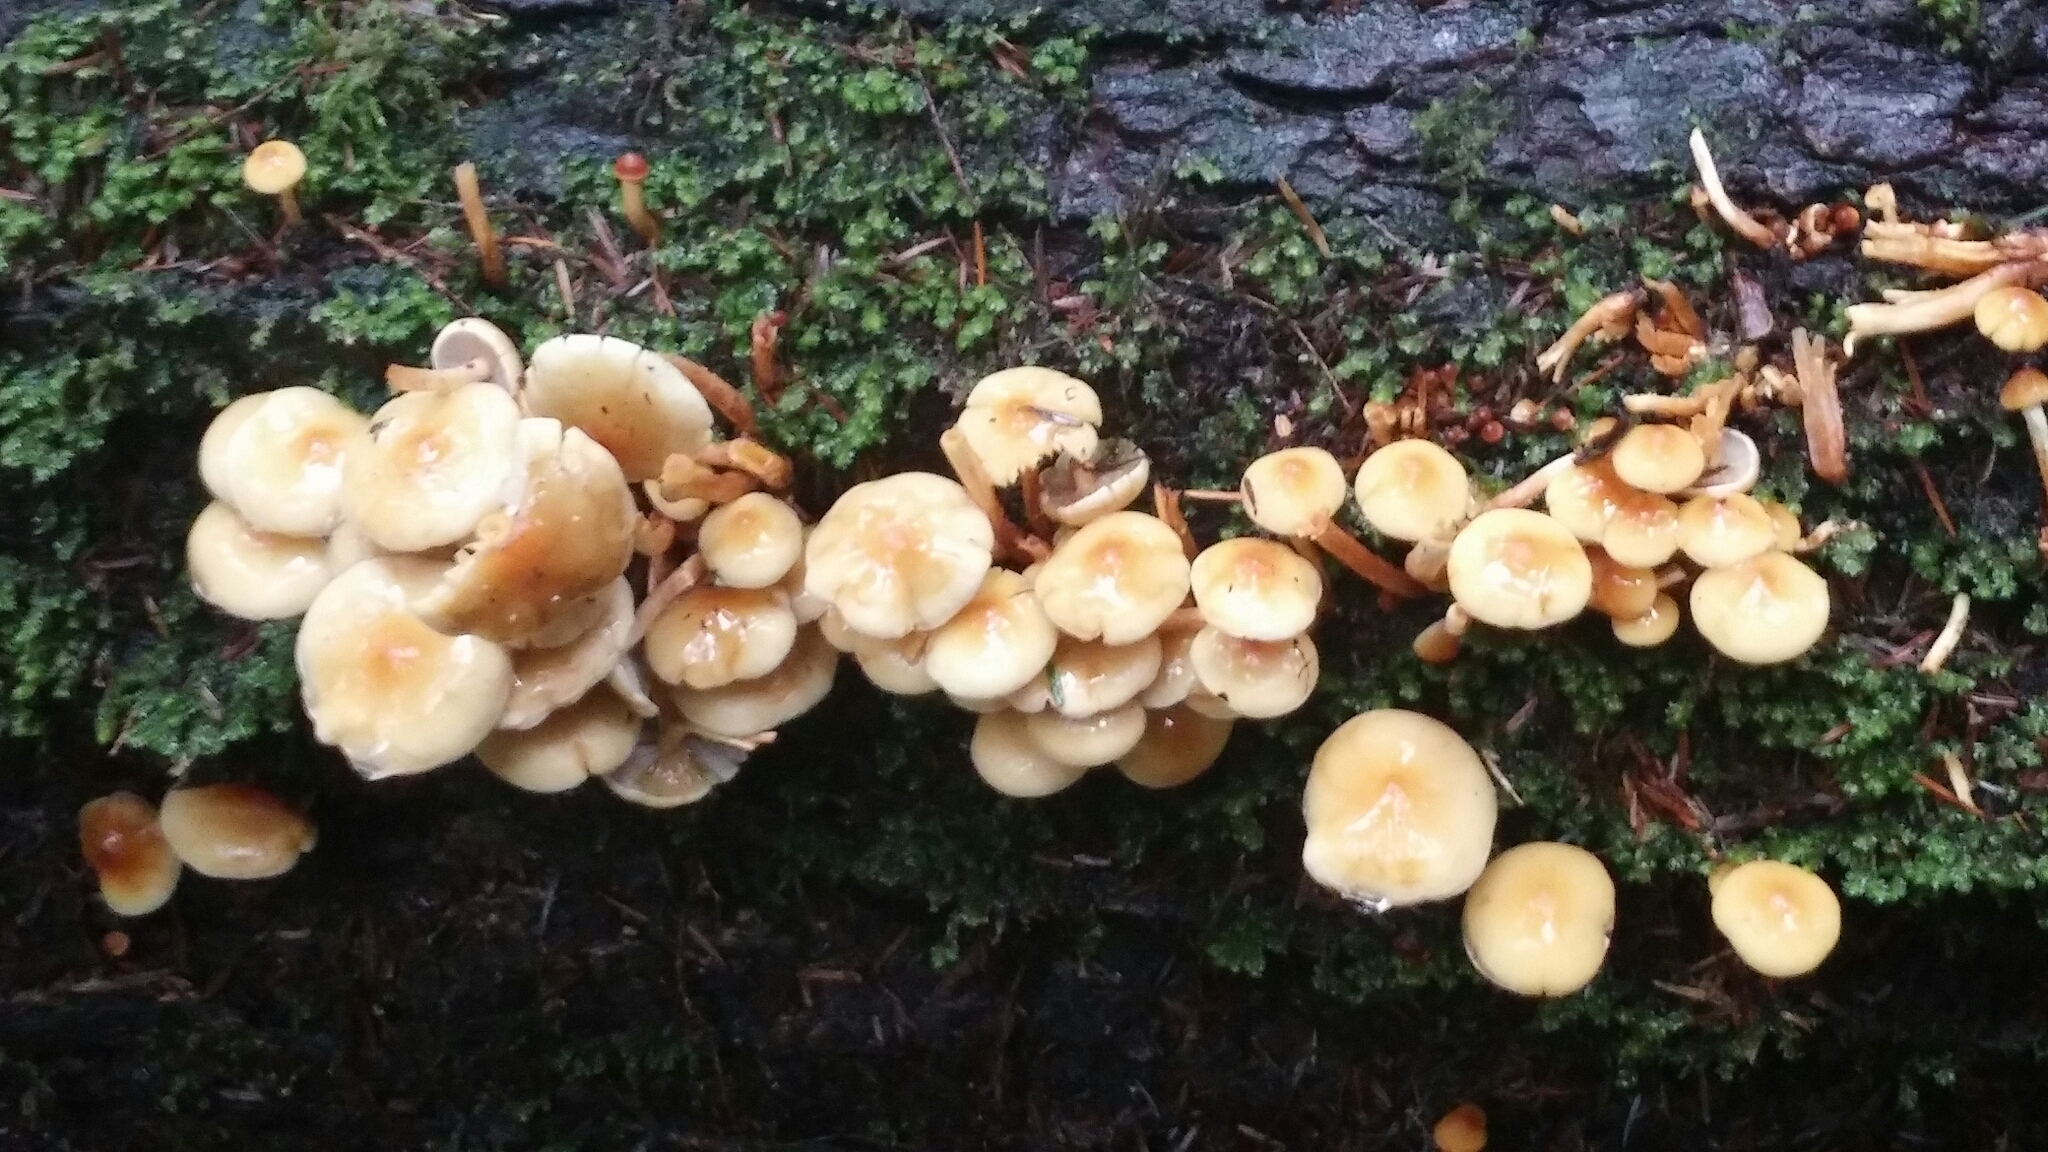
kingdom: Fungi
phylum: Basidiomycota
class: Agaricomycetes
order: Agaricales
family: Strophariaceae
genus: Hypholoma
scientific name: Hypholoma capnoides
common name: Conifer tuft
